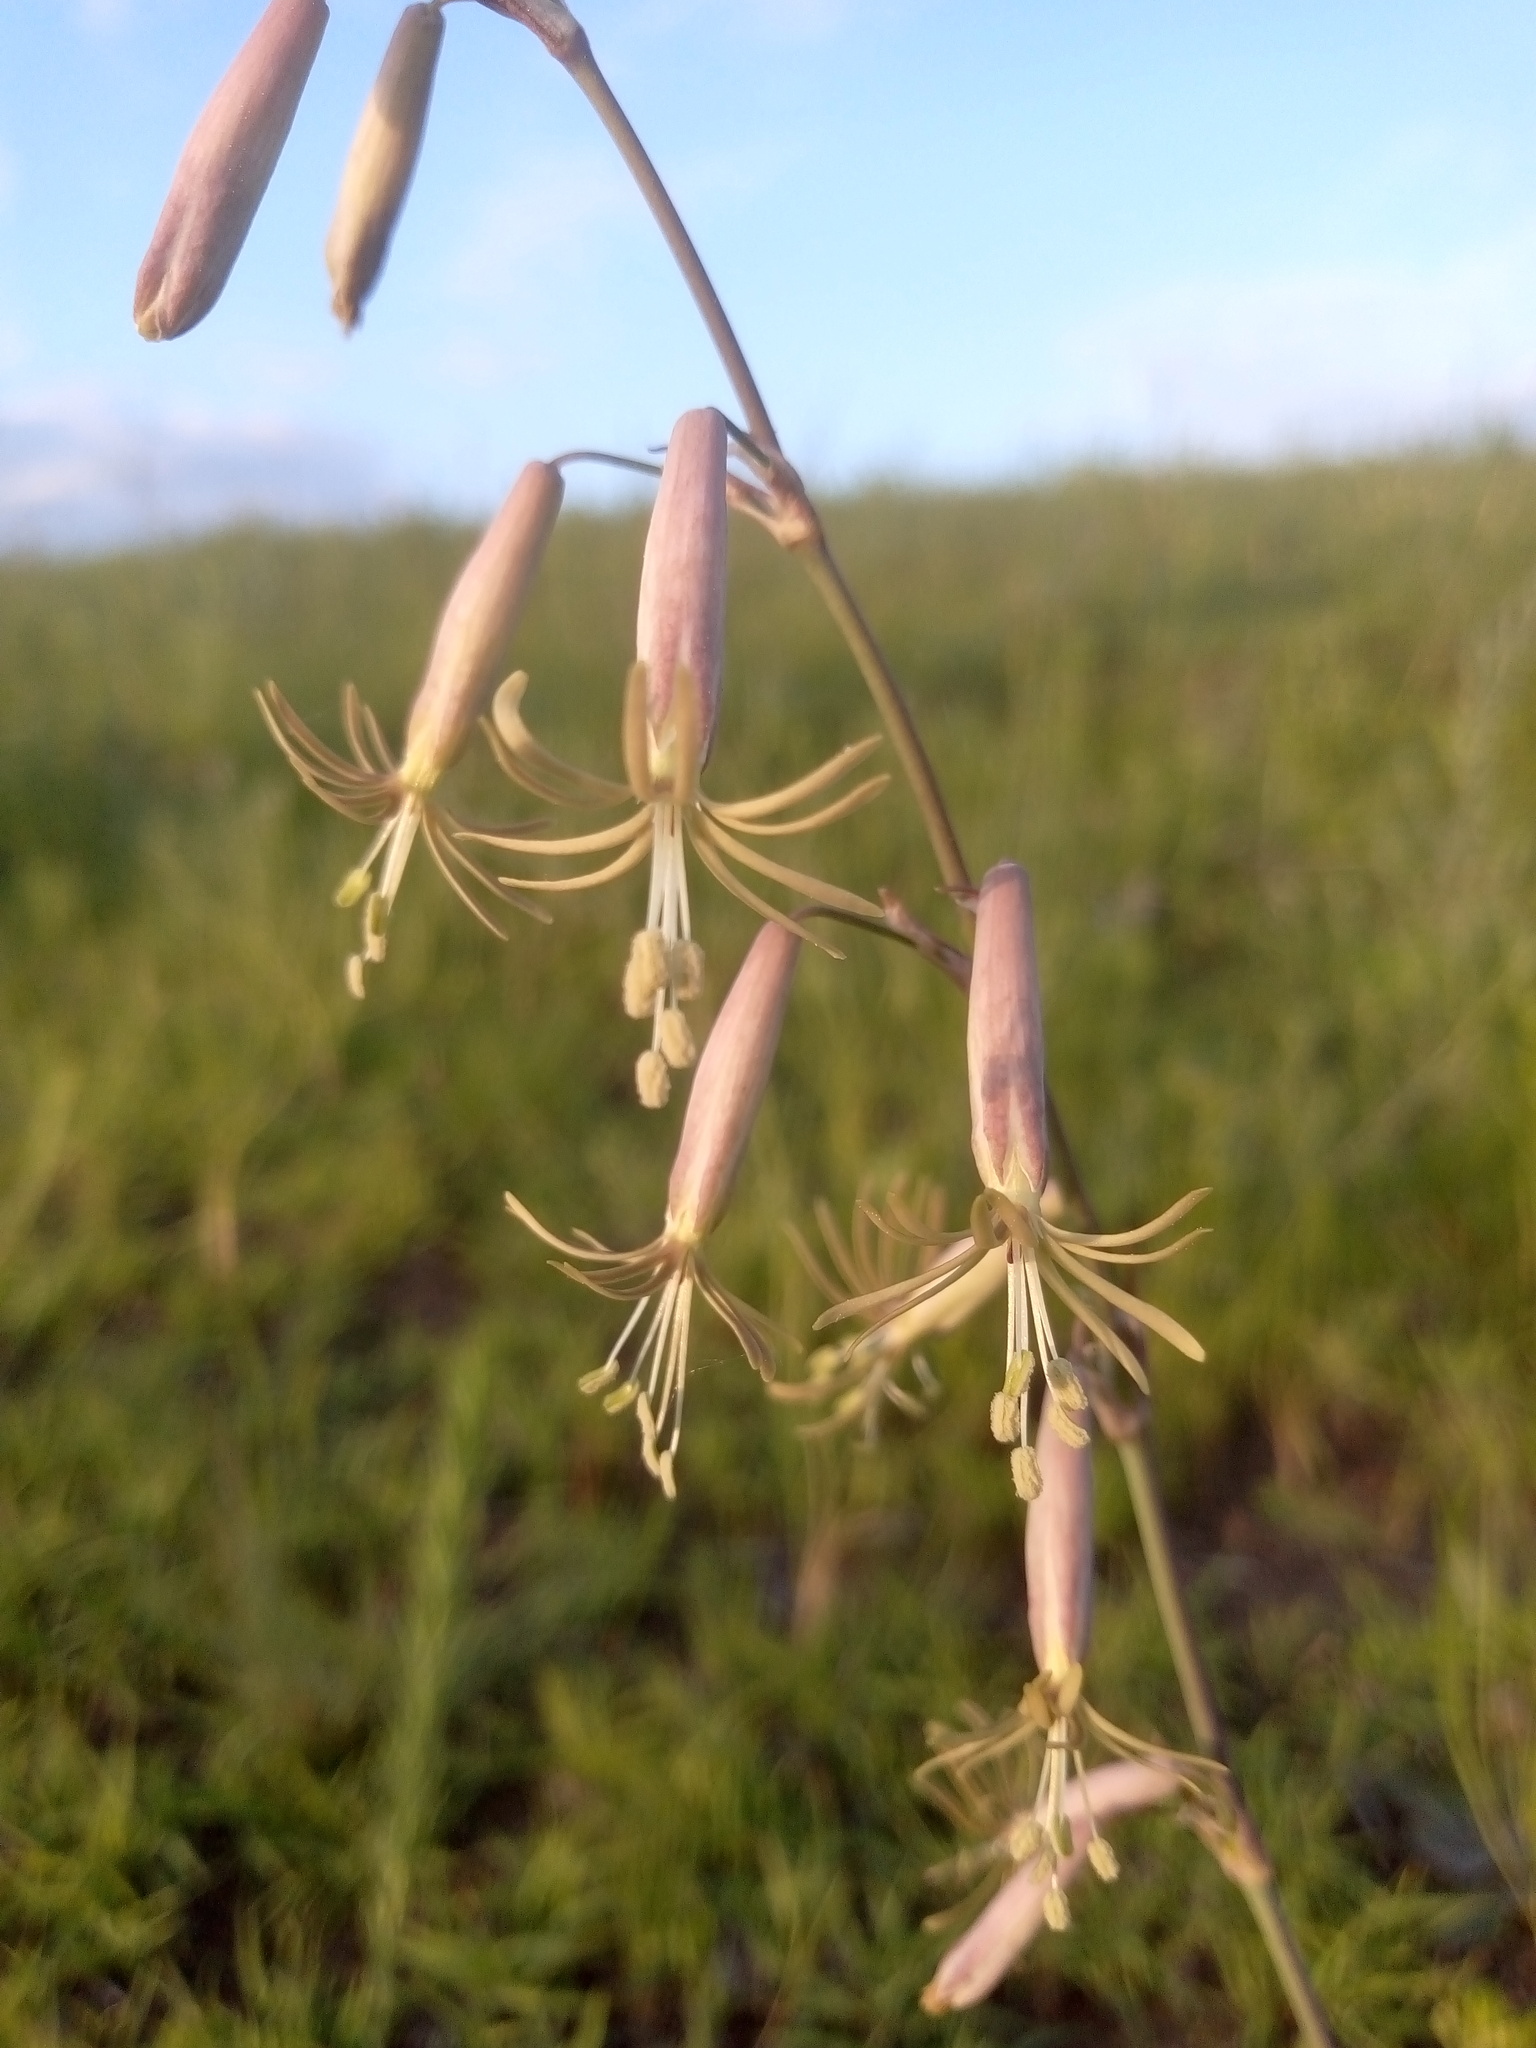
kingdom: Plantae
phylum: Tracheophyta
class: Magnoliopsida
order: Caryophyllales
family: Caryophyllaceae
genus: Silene
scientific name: Silene chlorantha
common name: Yellowgreen catchfly
